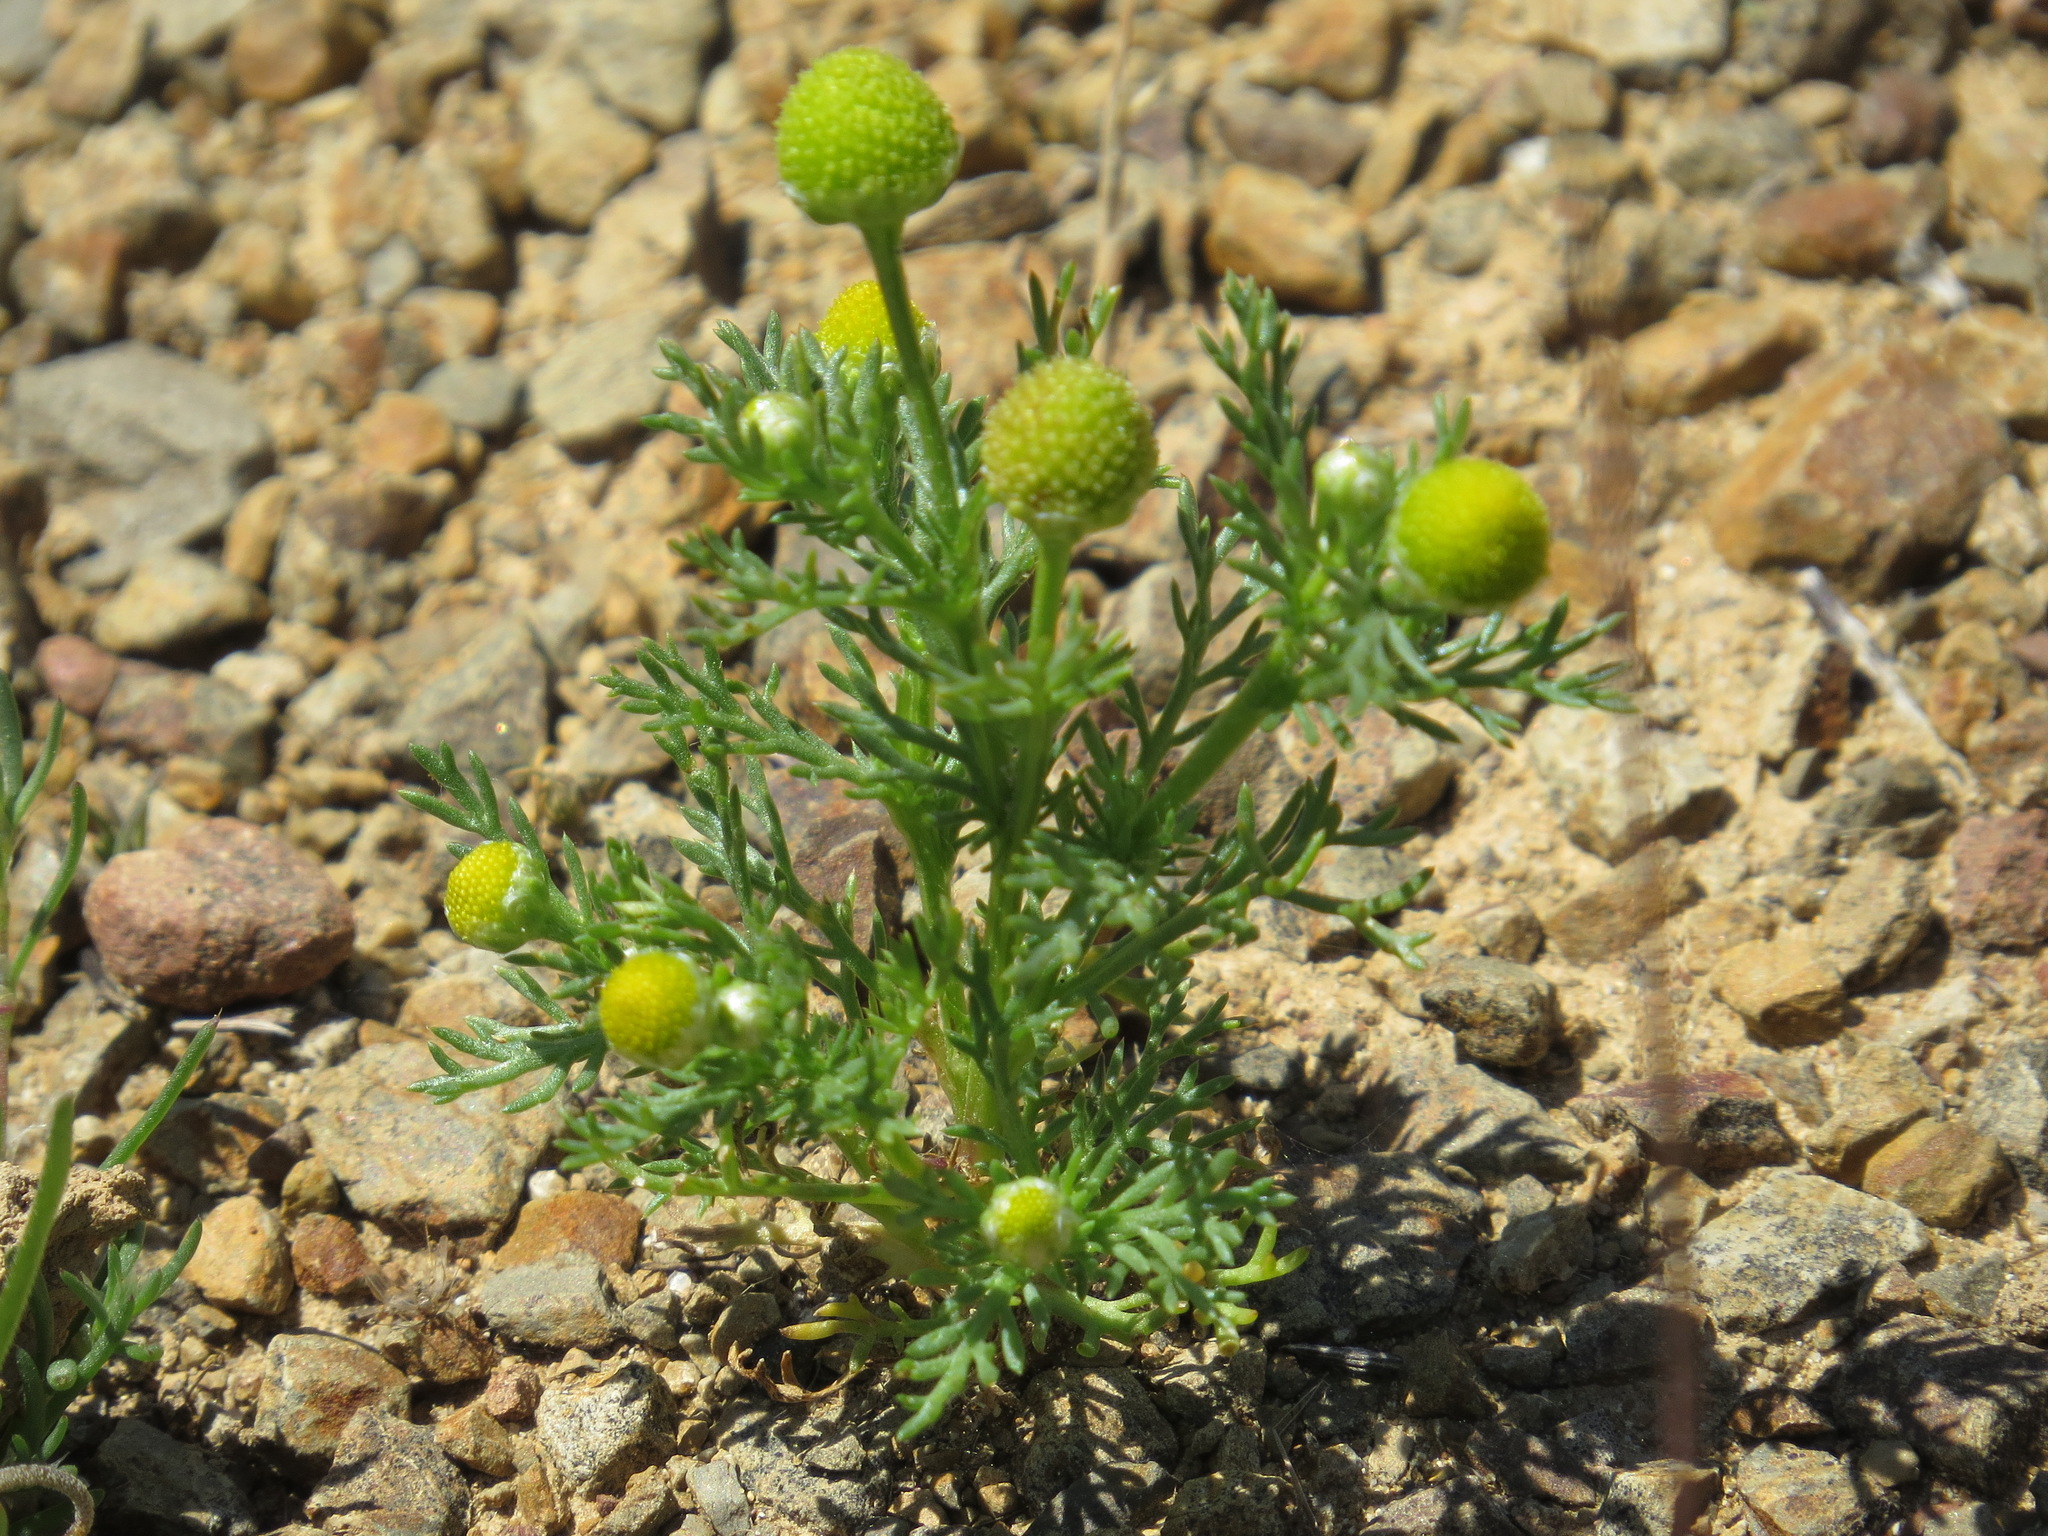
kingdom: Plantae
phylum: Tracheophyta
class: Magnoliopsida
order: Asterales
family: Asteraceae
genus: Matricaria
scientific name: Matricaria discoidea
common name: Disc mayweed
